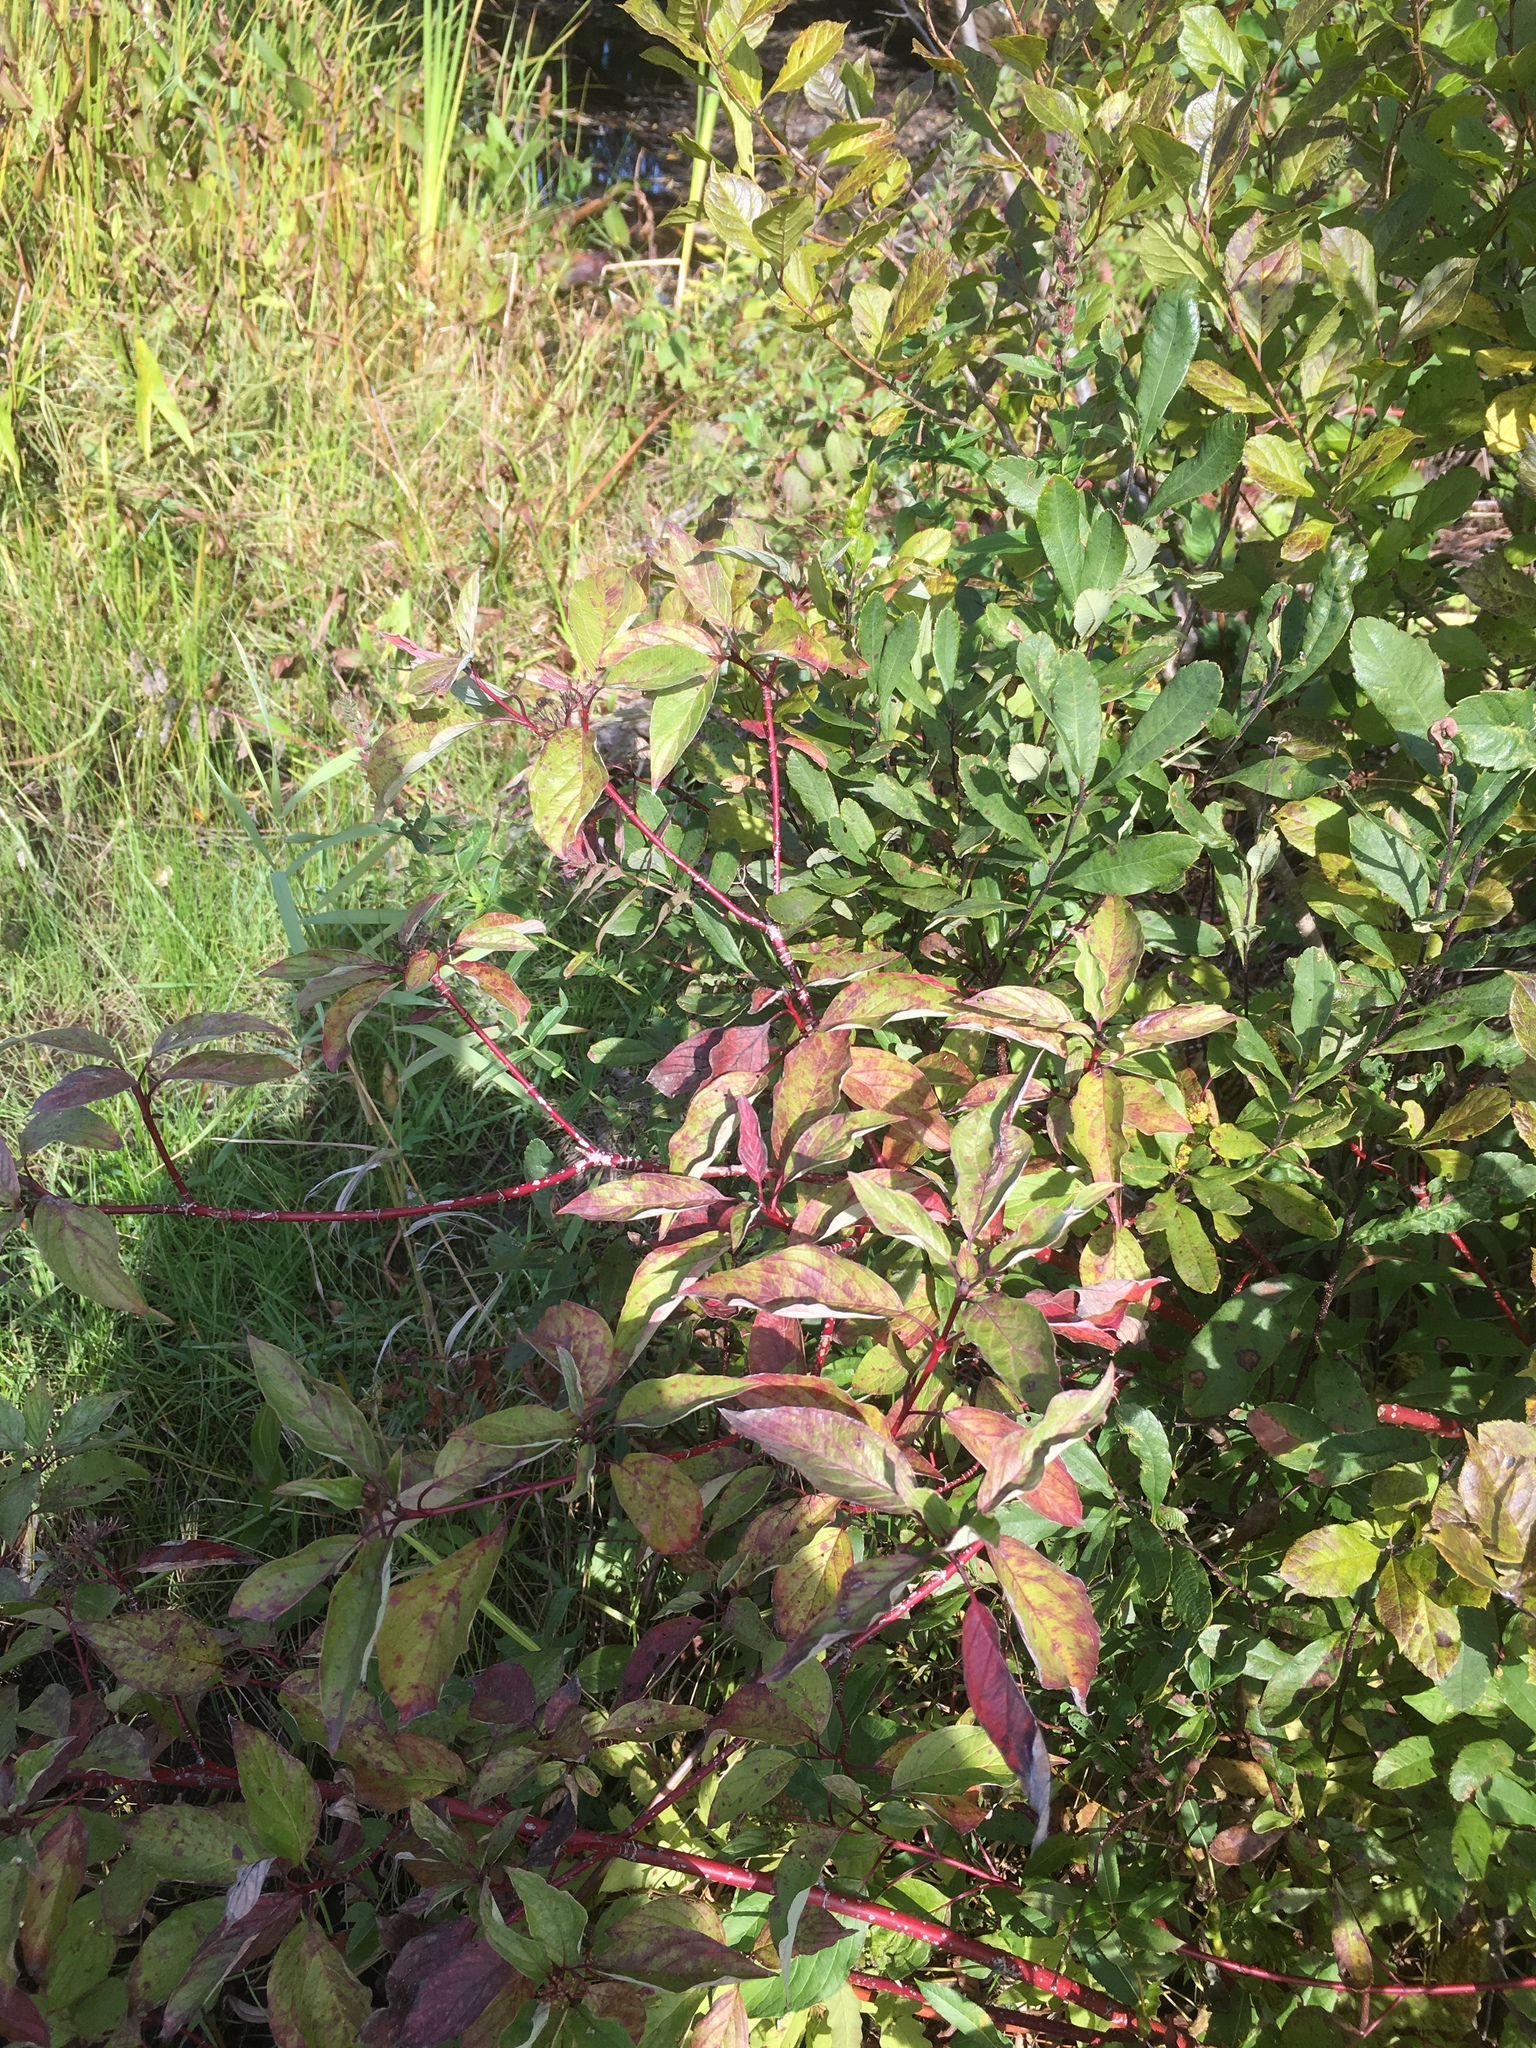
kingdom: Plantae
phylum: Tracheophyta
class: Magnoliopsida
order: Cornales
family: Cornaceae
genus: Cornus
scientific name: Cornus sericea
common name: Red-osier dogwood
